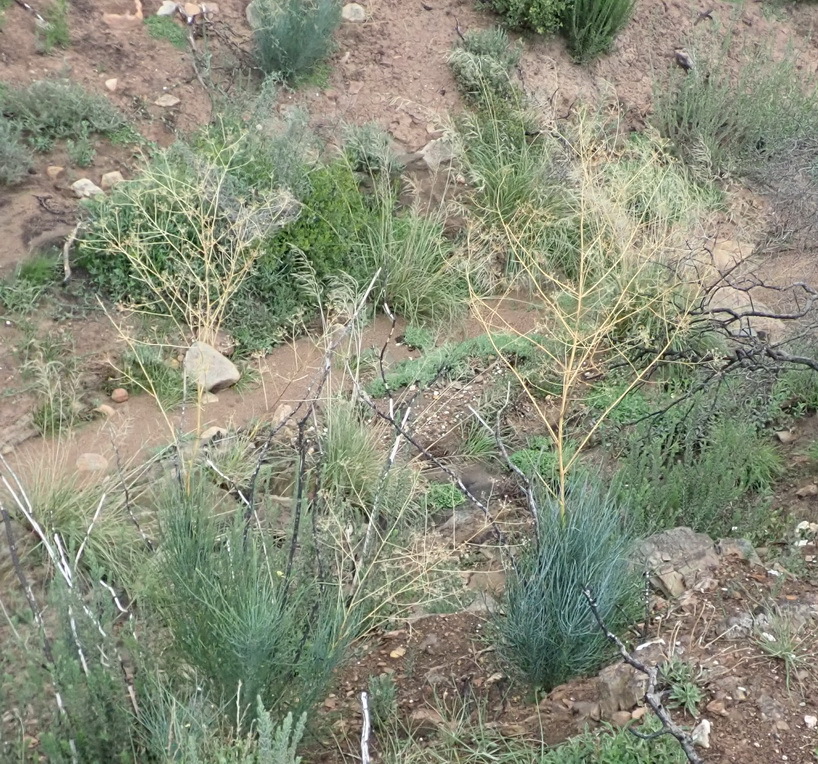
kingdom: Plantae
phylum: Tracheophyta
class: Magnoliopsida
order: Apiales
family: Apiaceae
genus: Anginon
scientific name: Anginon swellendamense
